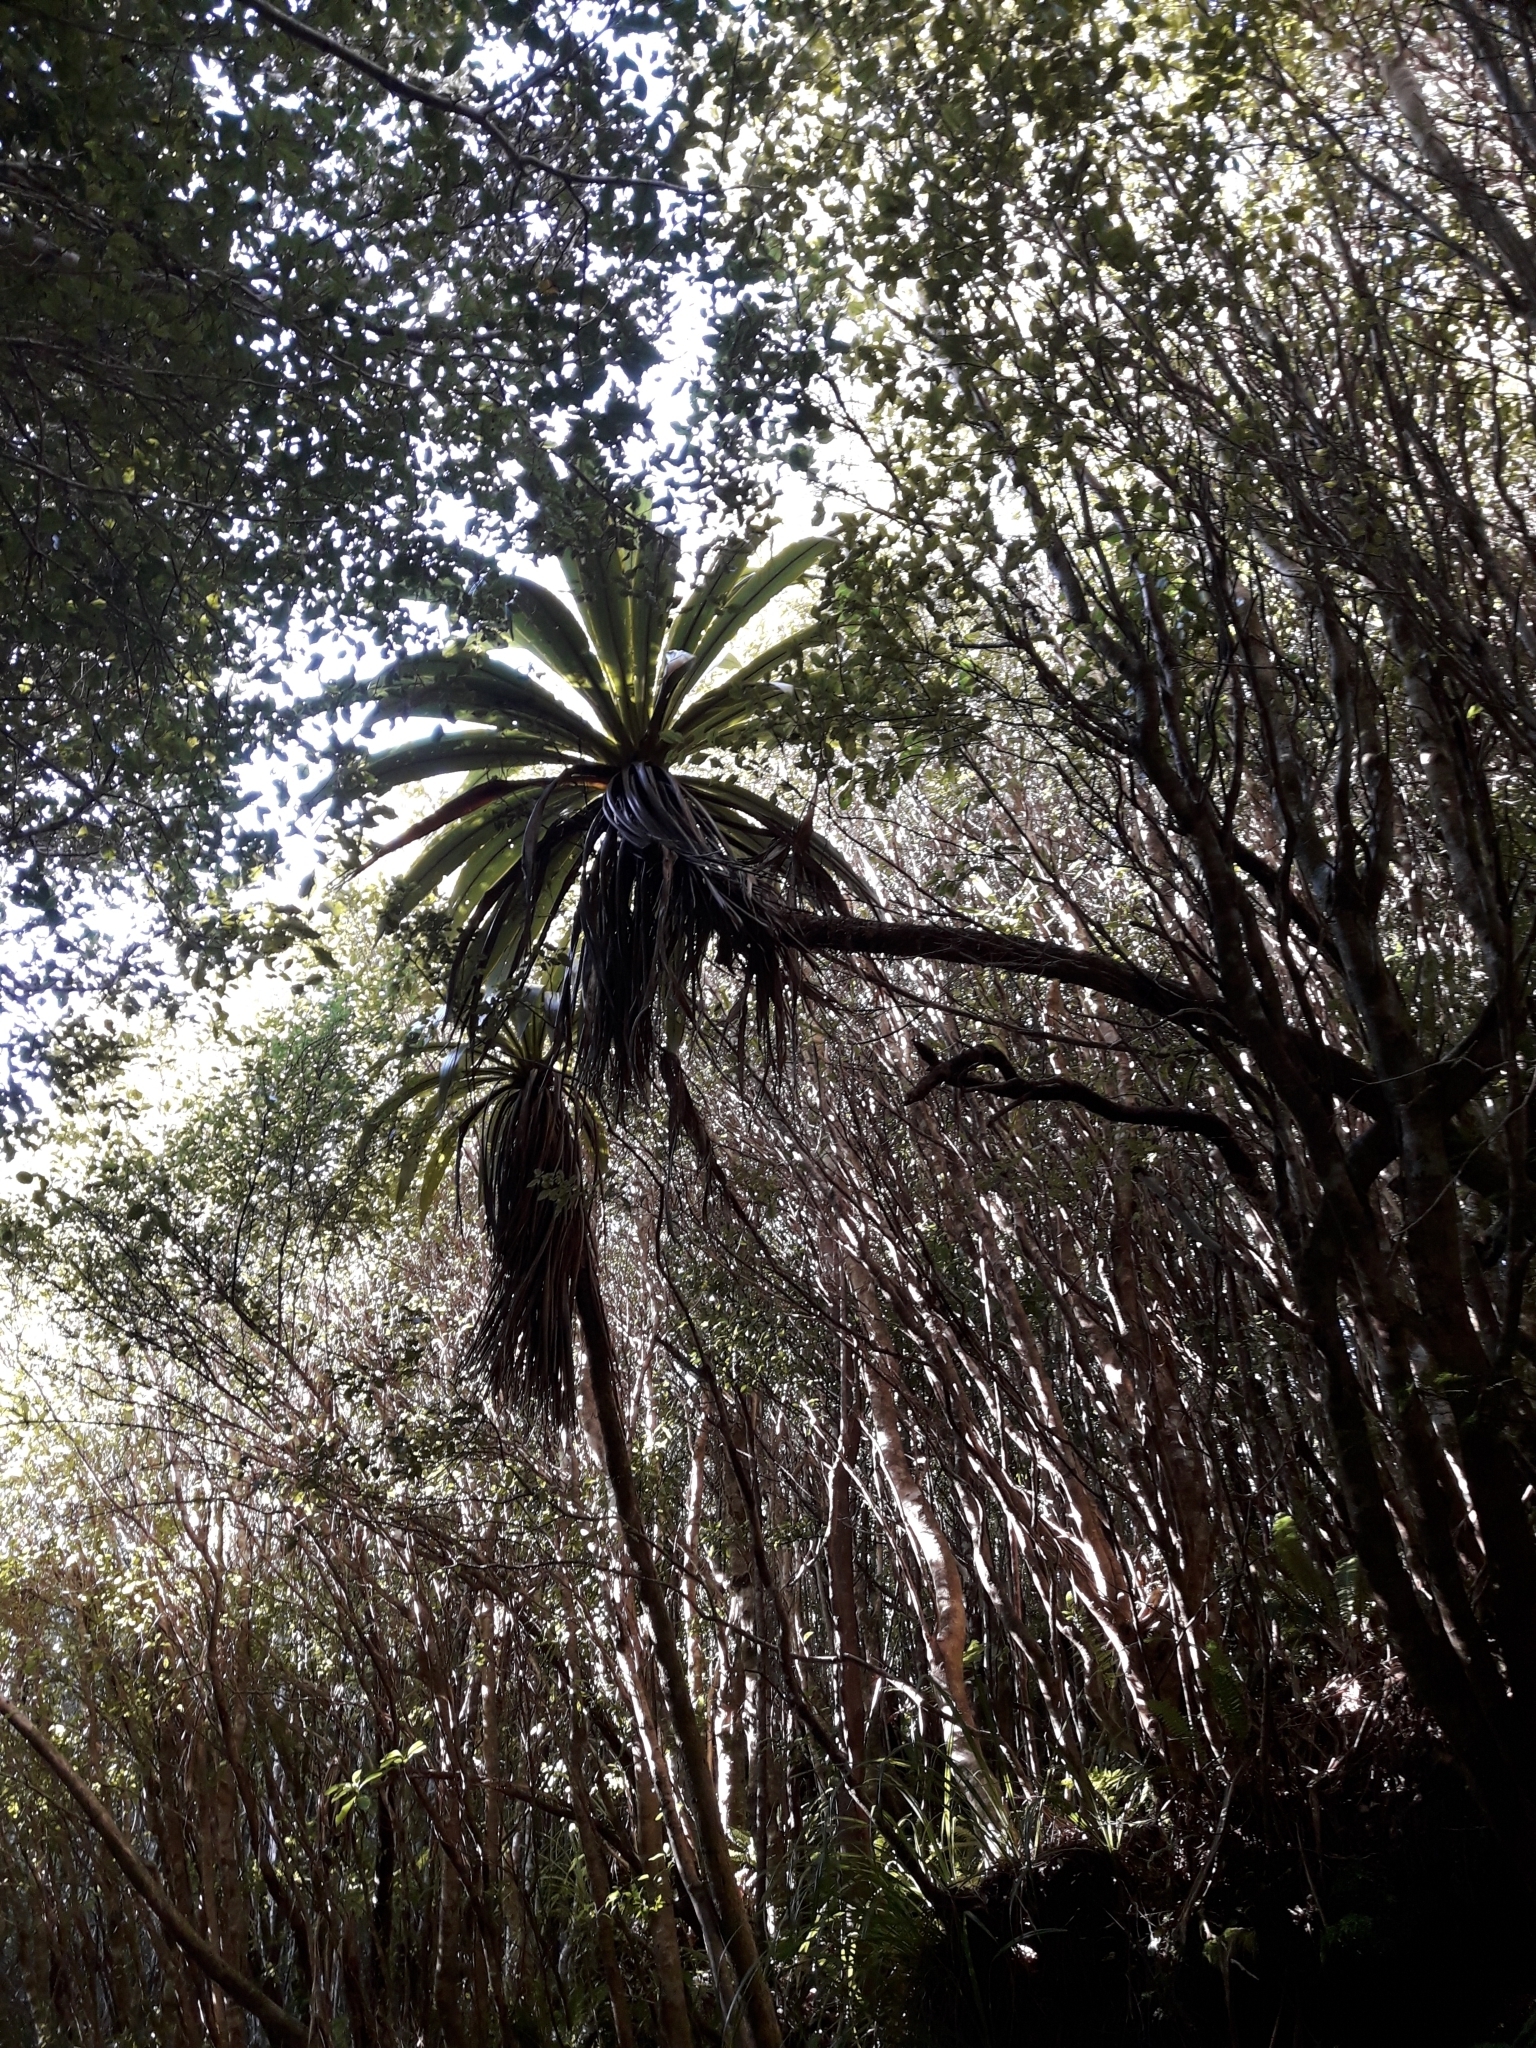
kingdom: Plantae
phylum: Tracheophyta
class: Liliopsida
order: Asparagales
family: Asparagaceae
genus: Cordyline
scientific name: Cordyline indivisa
